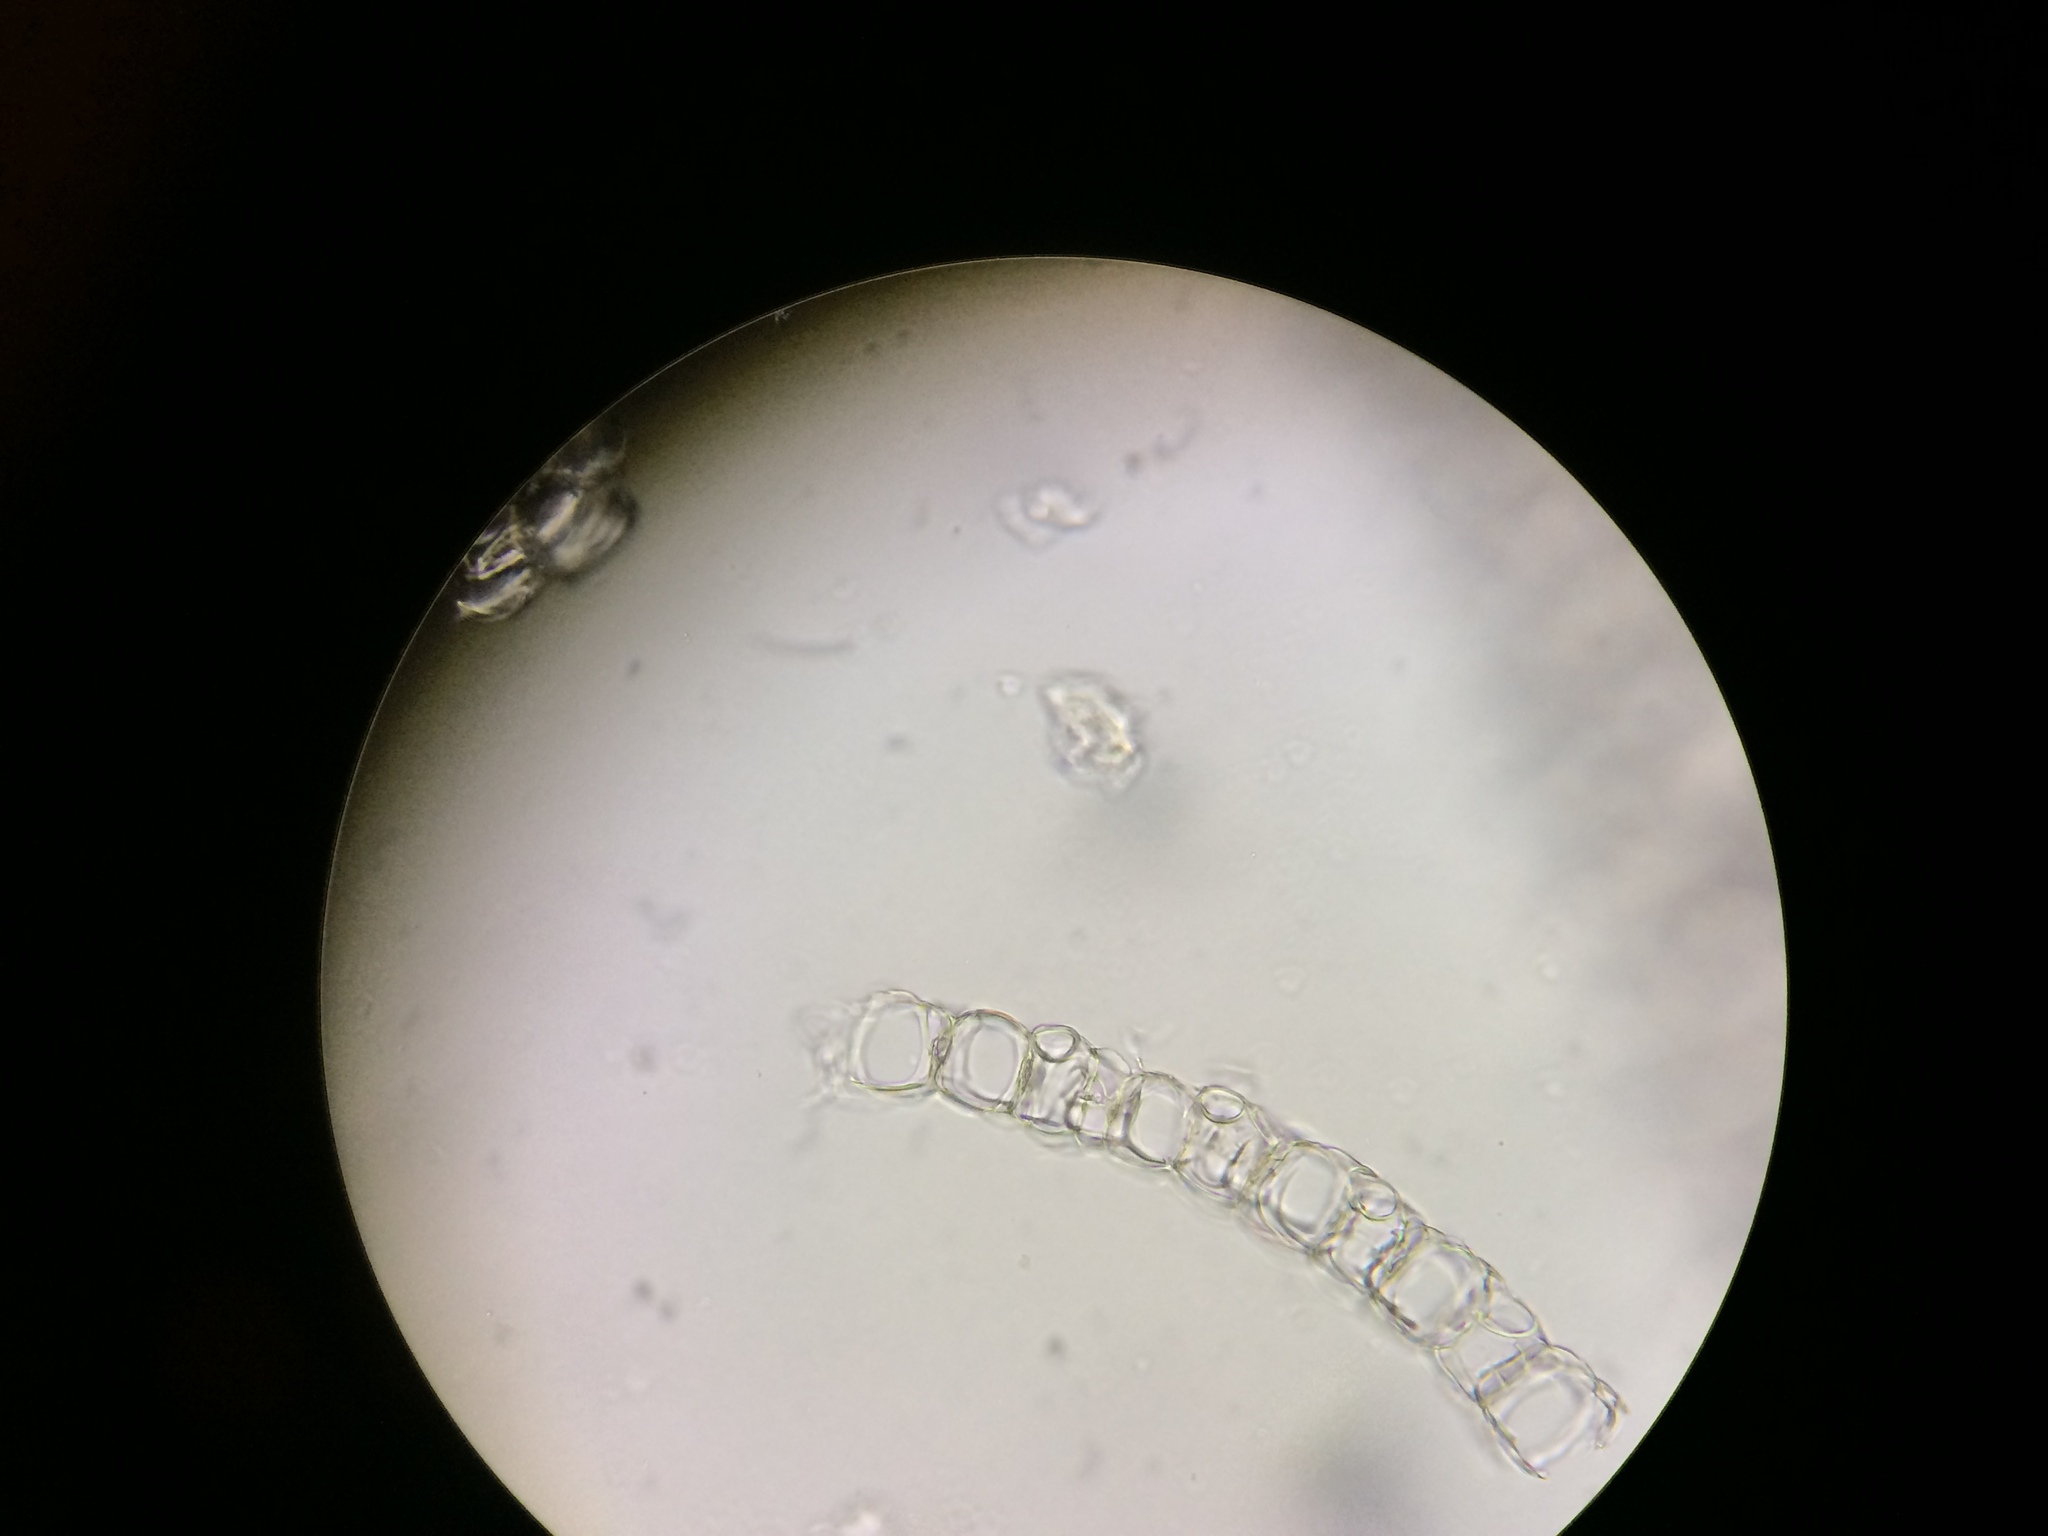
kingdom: Plantae
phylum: Bryophyta
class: Sphagnopsida
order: Sphagnales
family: Sphagnaceae
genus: Sphagnum
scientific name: Sphagnum girgensohnii
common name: Girgensohn's peat moss
